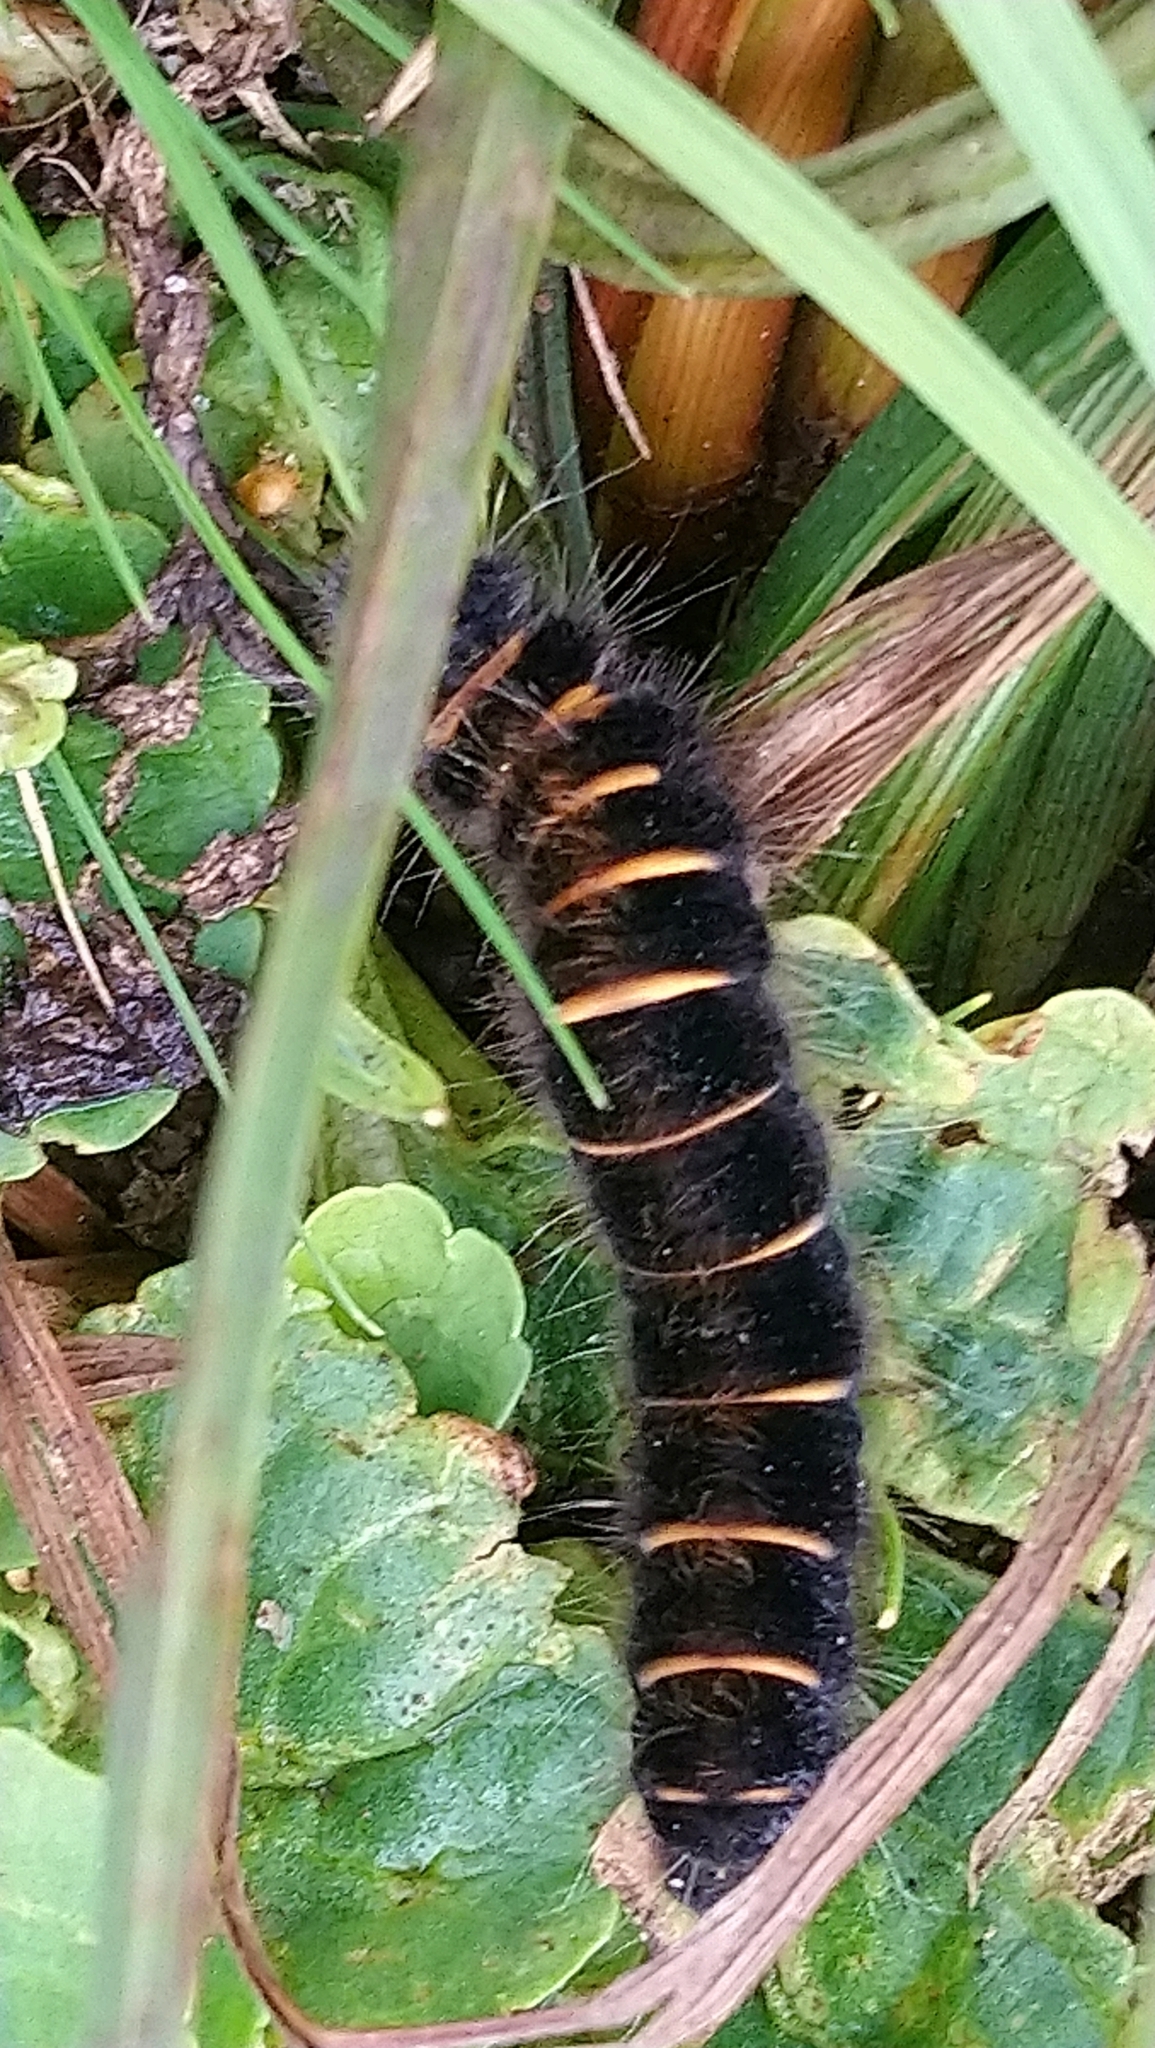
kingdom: Animalia
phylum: Arthropoda
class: Insecta
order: Lepidoptera
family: Lasiocampidae
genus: Macrothylacia
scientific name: Macrothylacia rubi
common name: Fox moth
